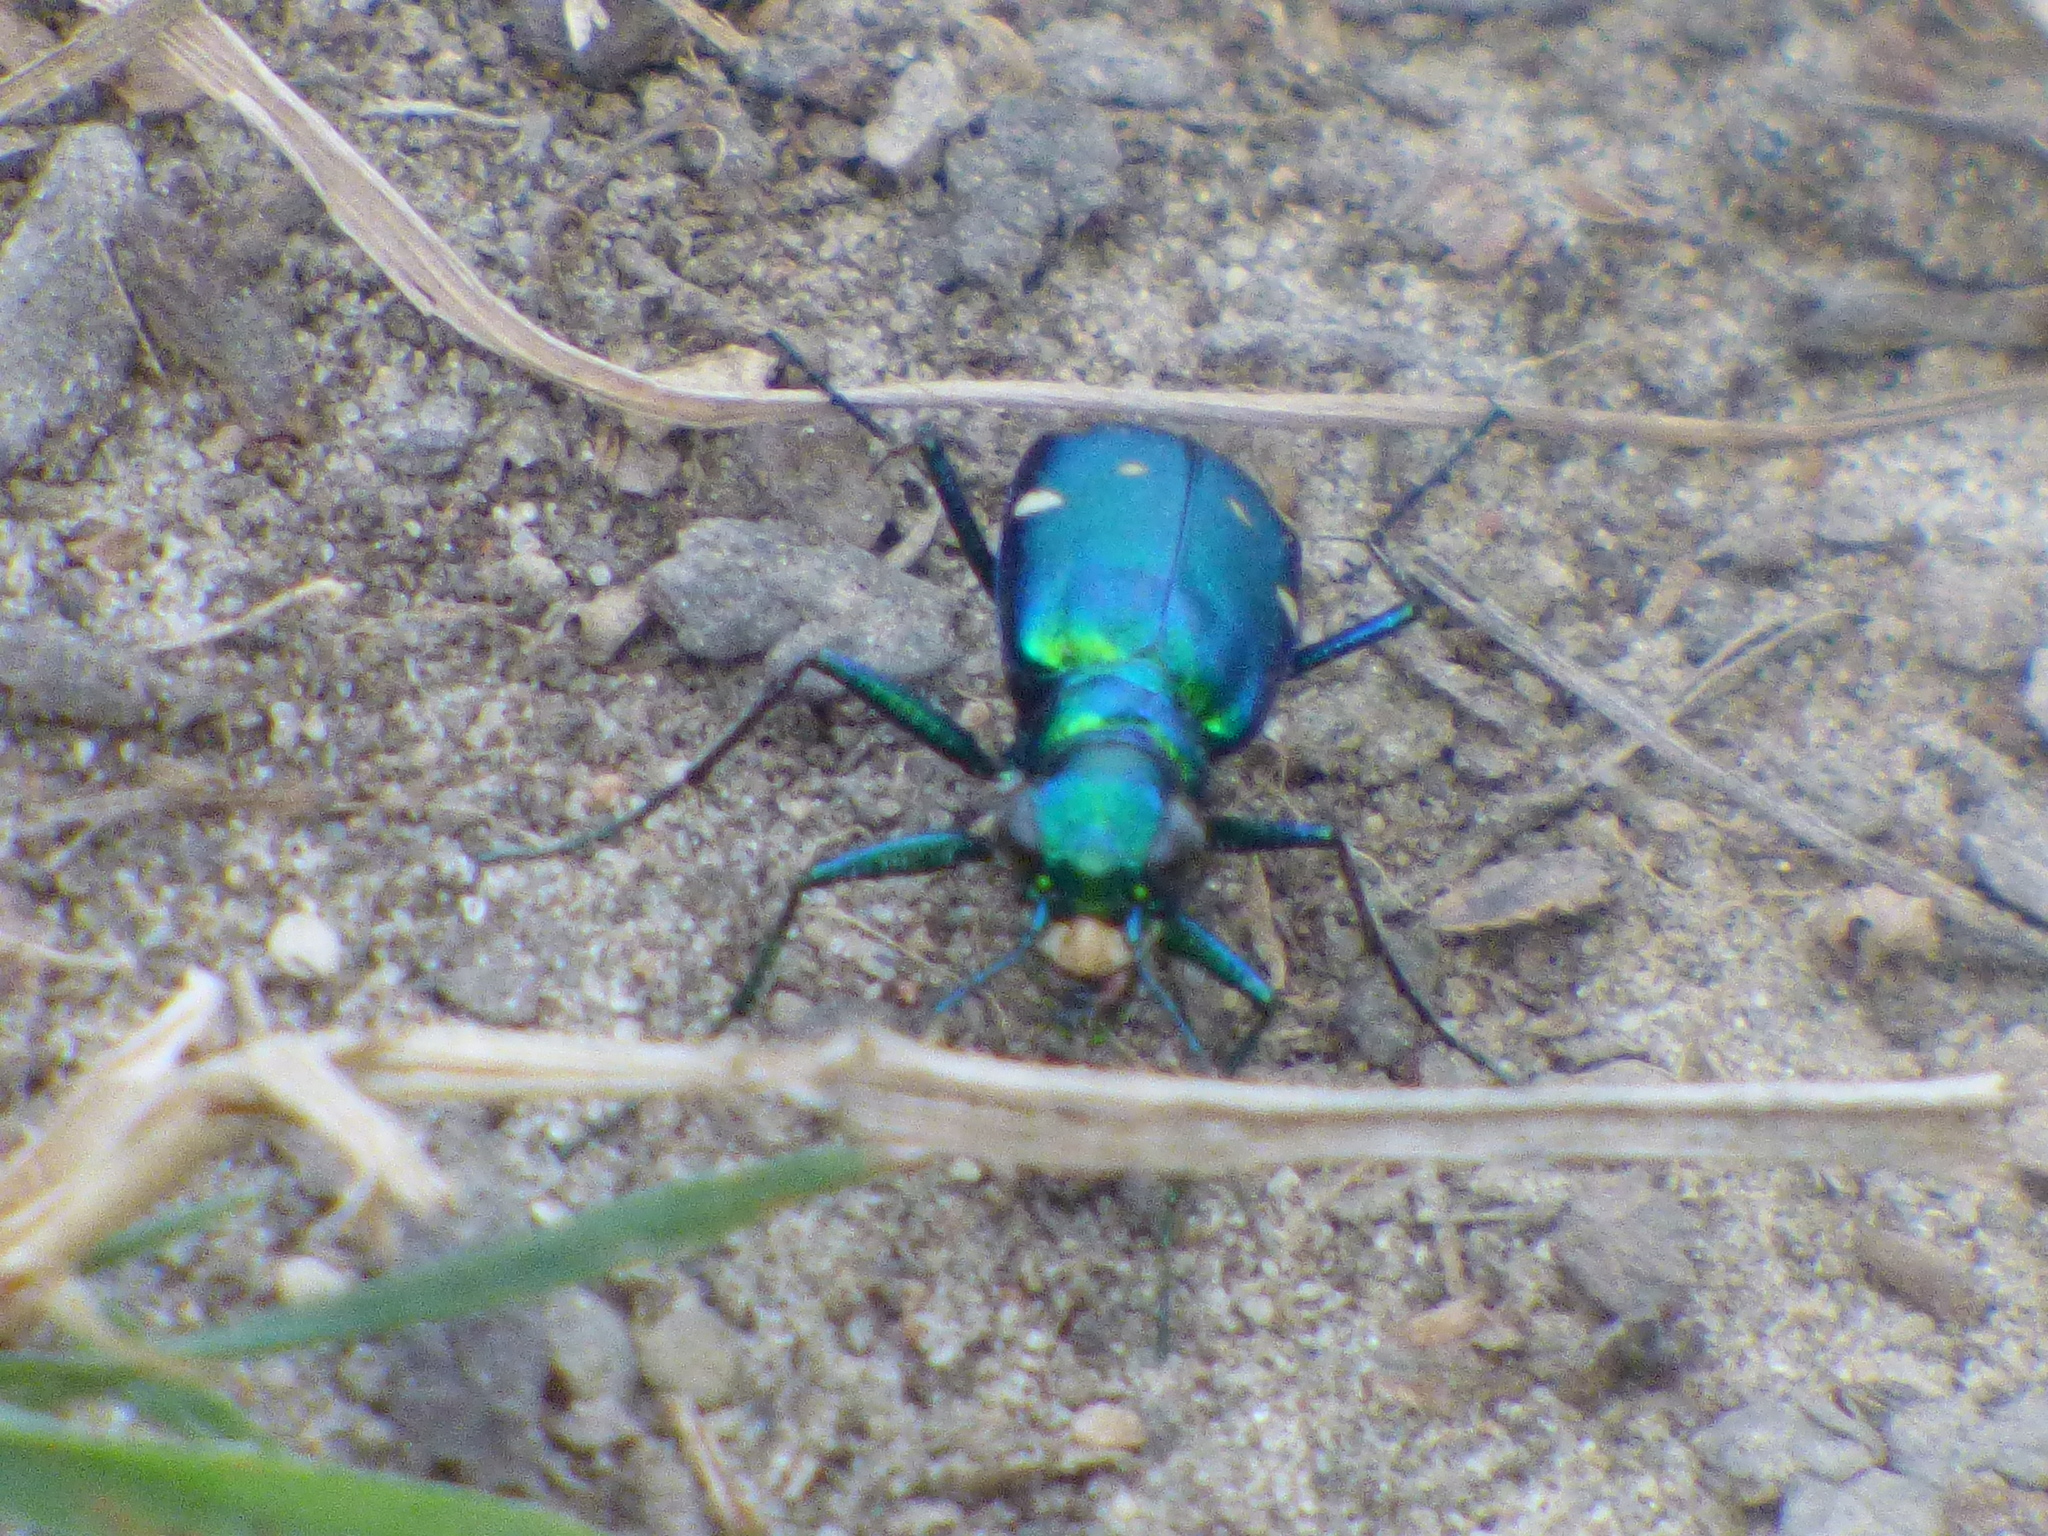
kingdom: Animalia
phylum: Arthropoda
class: Insecta
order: Coleoptera
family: Carabidae
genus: Cicindela
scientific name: Cicindela sexguttata
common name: Six-spotted tiger beetle
